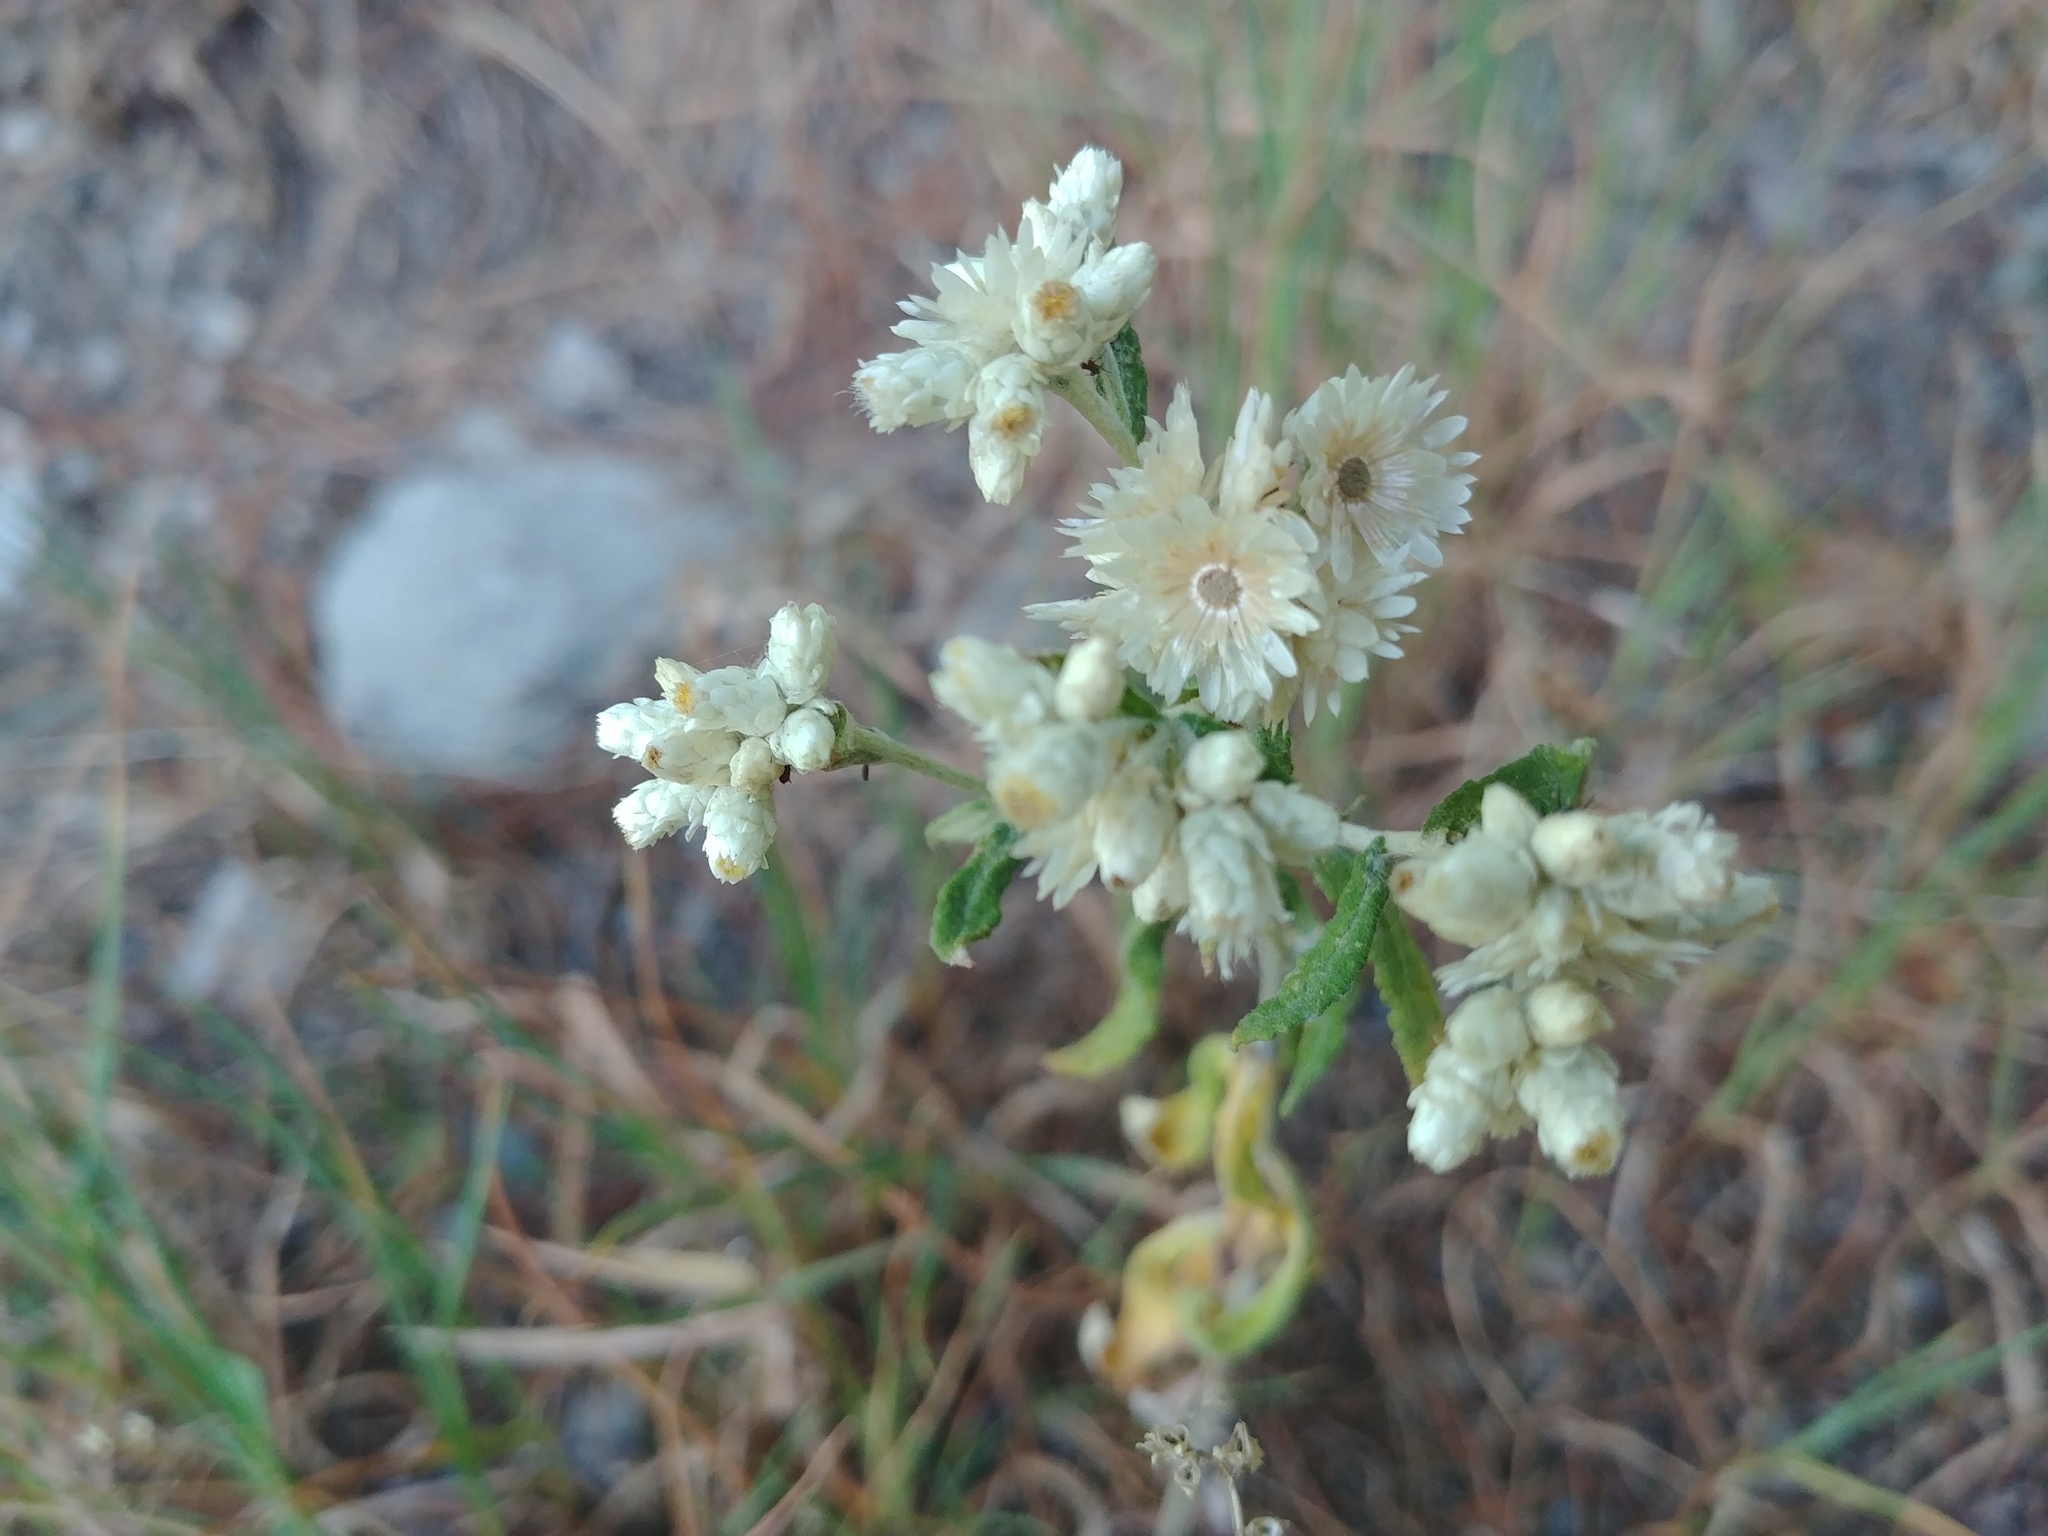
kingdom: Plantae
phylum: Tracheophyta
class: Magnoliopsida
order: Asterales
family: Asteraceae
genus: Pseudognaphalium
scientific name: Pseudognaphalium obtusifolium
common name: Eastern rabbit-tobacco
